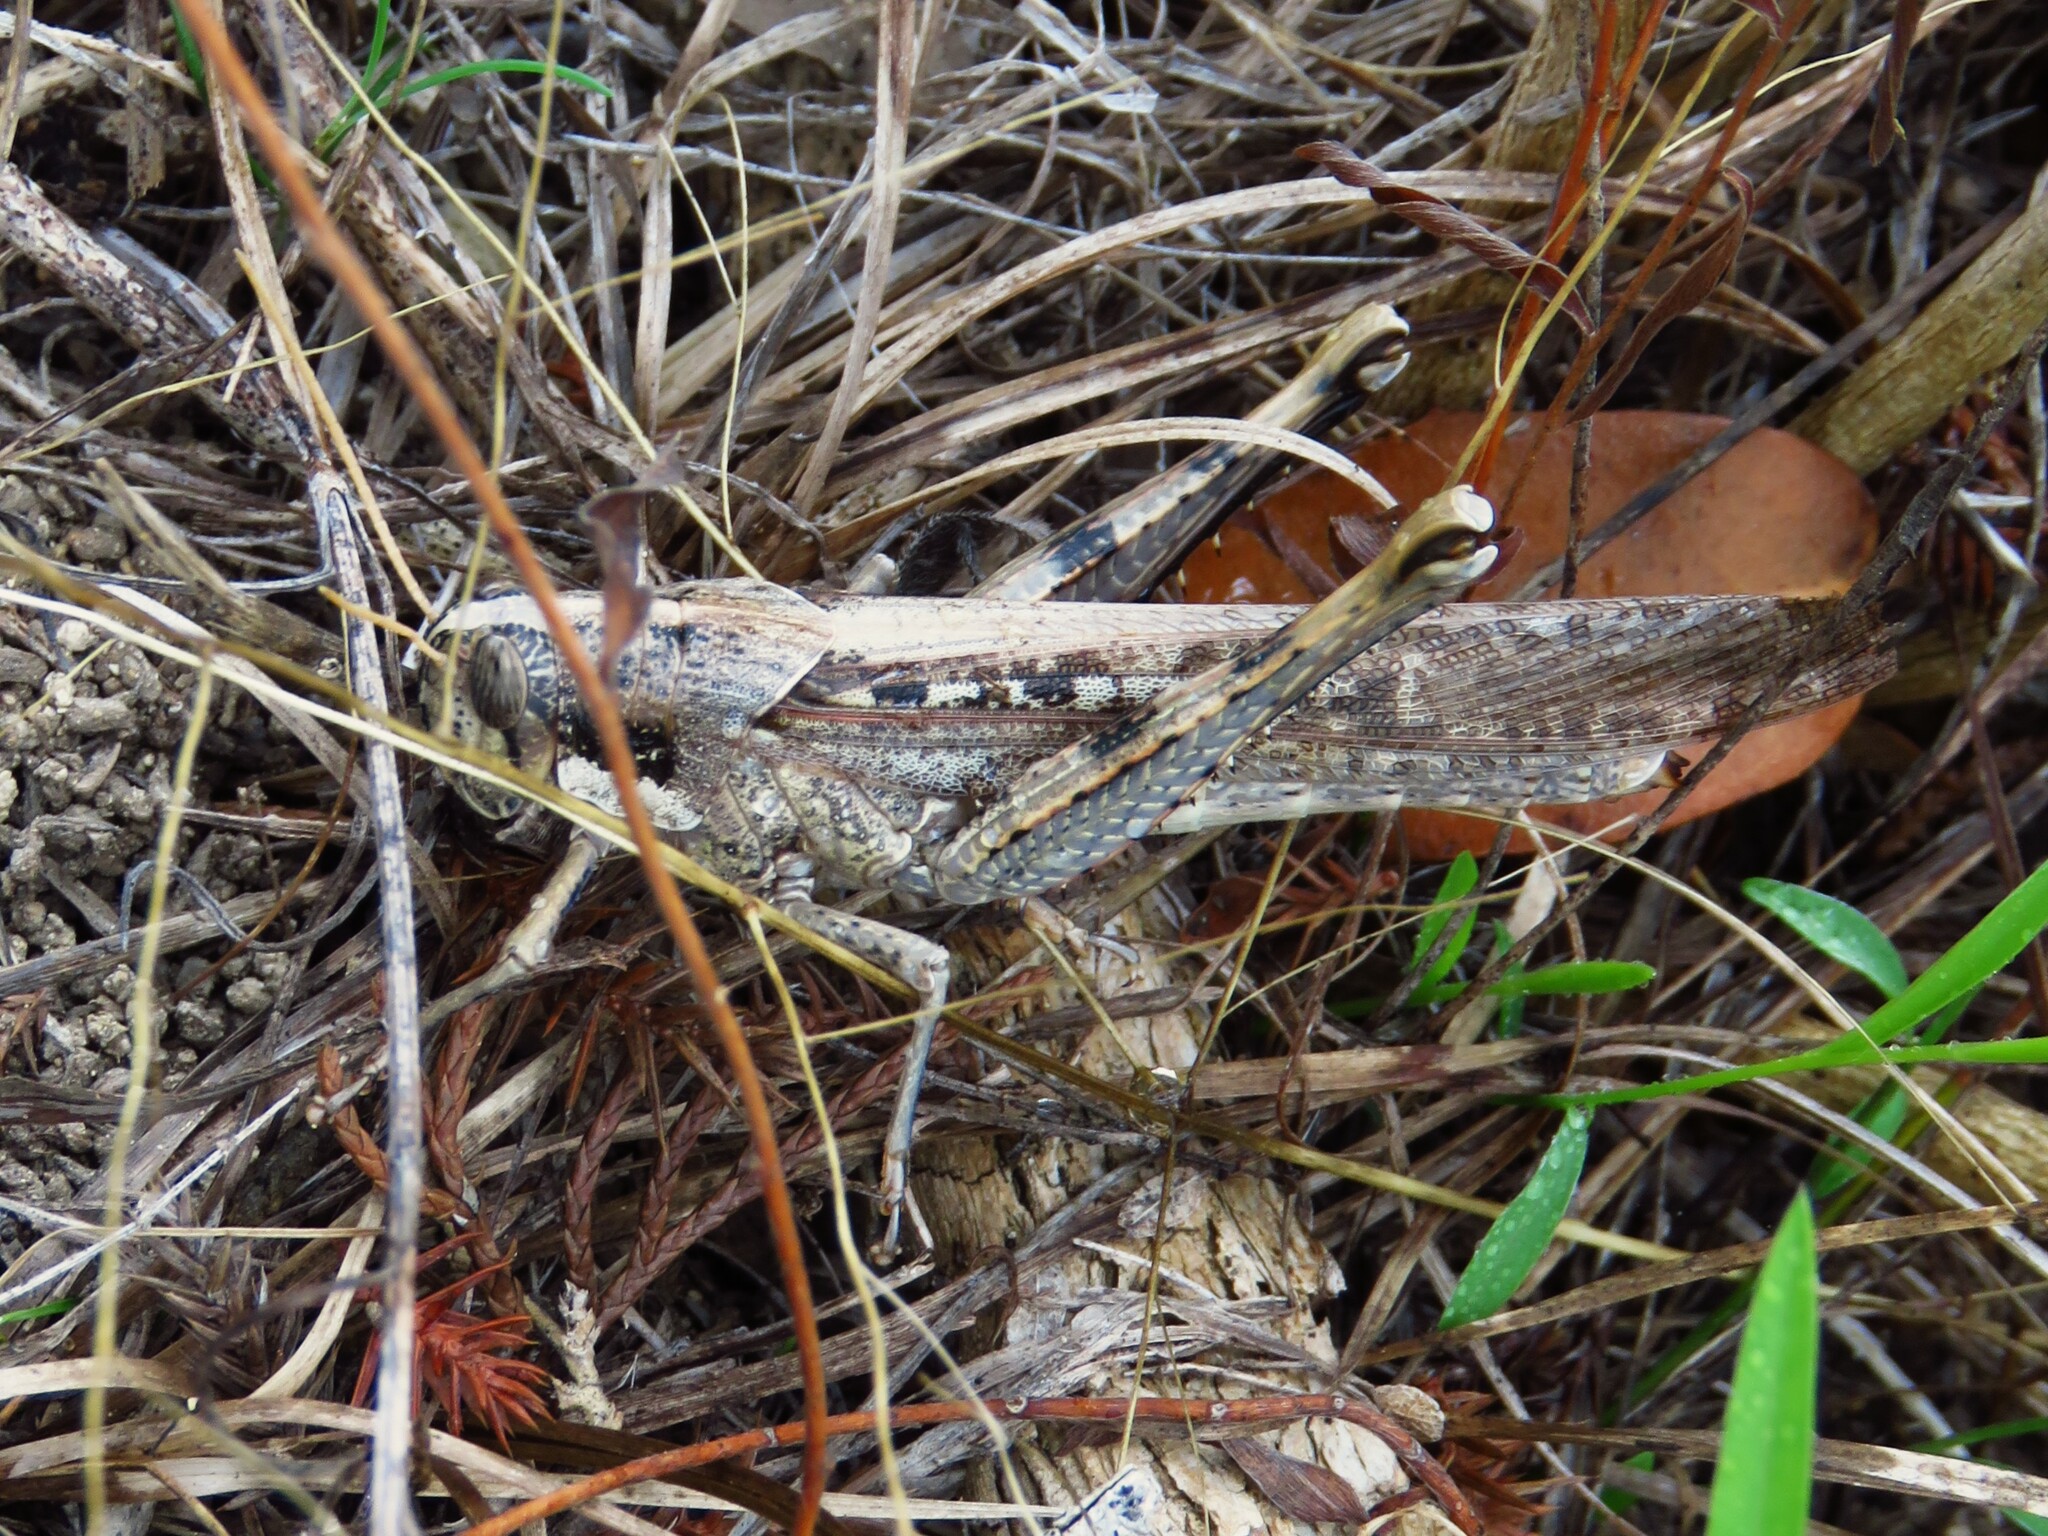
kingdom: Animalia
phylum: Arthropoda
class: Insecta
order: Orthoptera
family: Acrididae
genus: Schistocerca
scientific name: Schistocerca nitens
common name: Vagrant grasshopper
